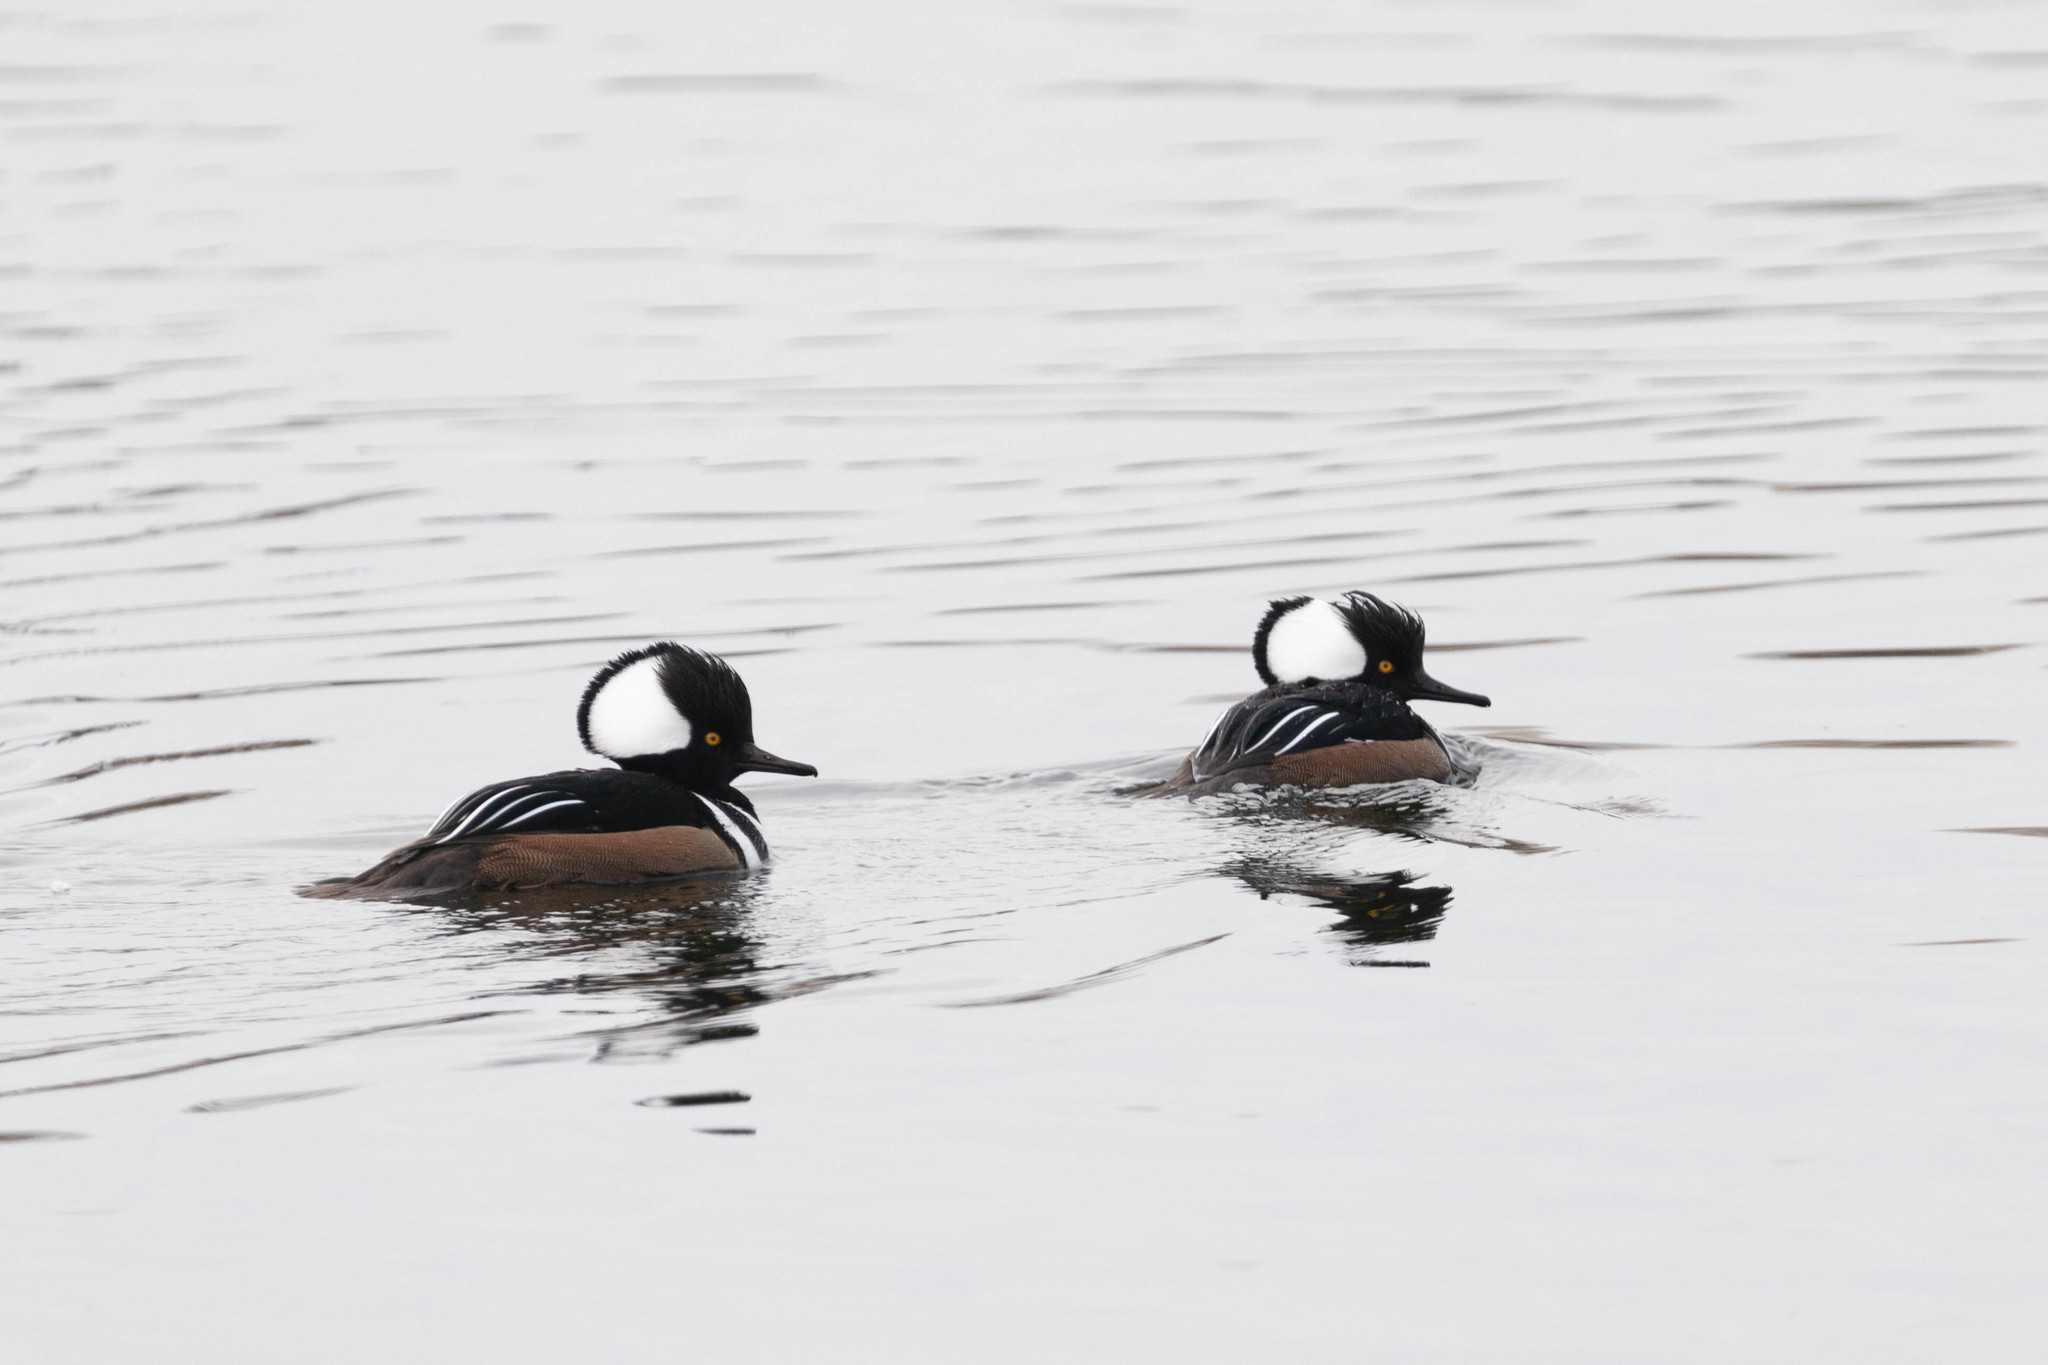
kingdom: Animalia
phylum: Chordata
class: Aves
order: Anseriformes
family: Anatidae
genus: Lophodytes
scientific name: Lophodytes cucullatus
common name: Hooded merganser
